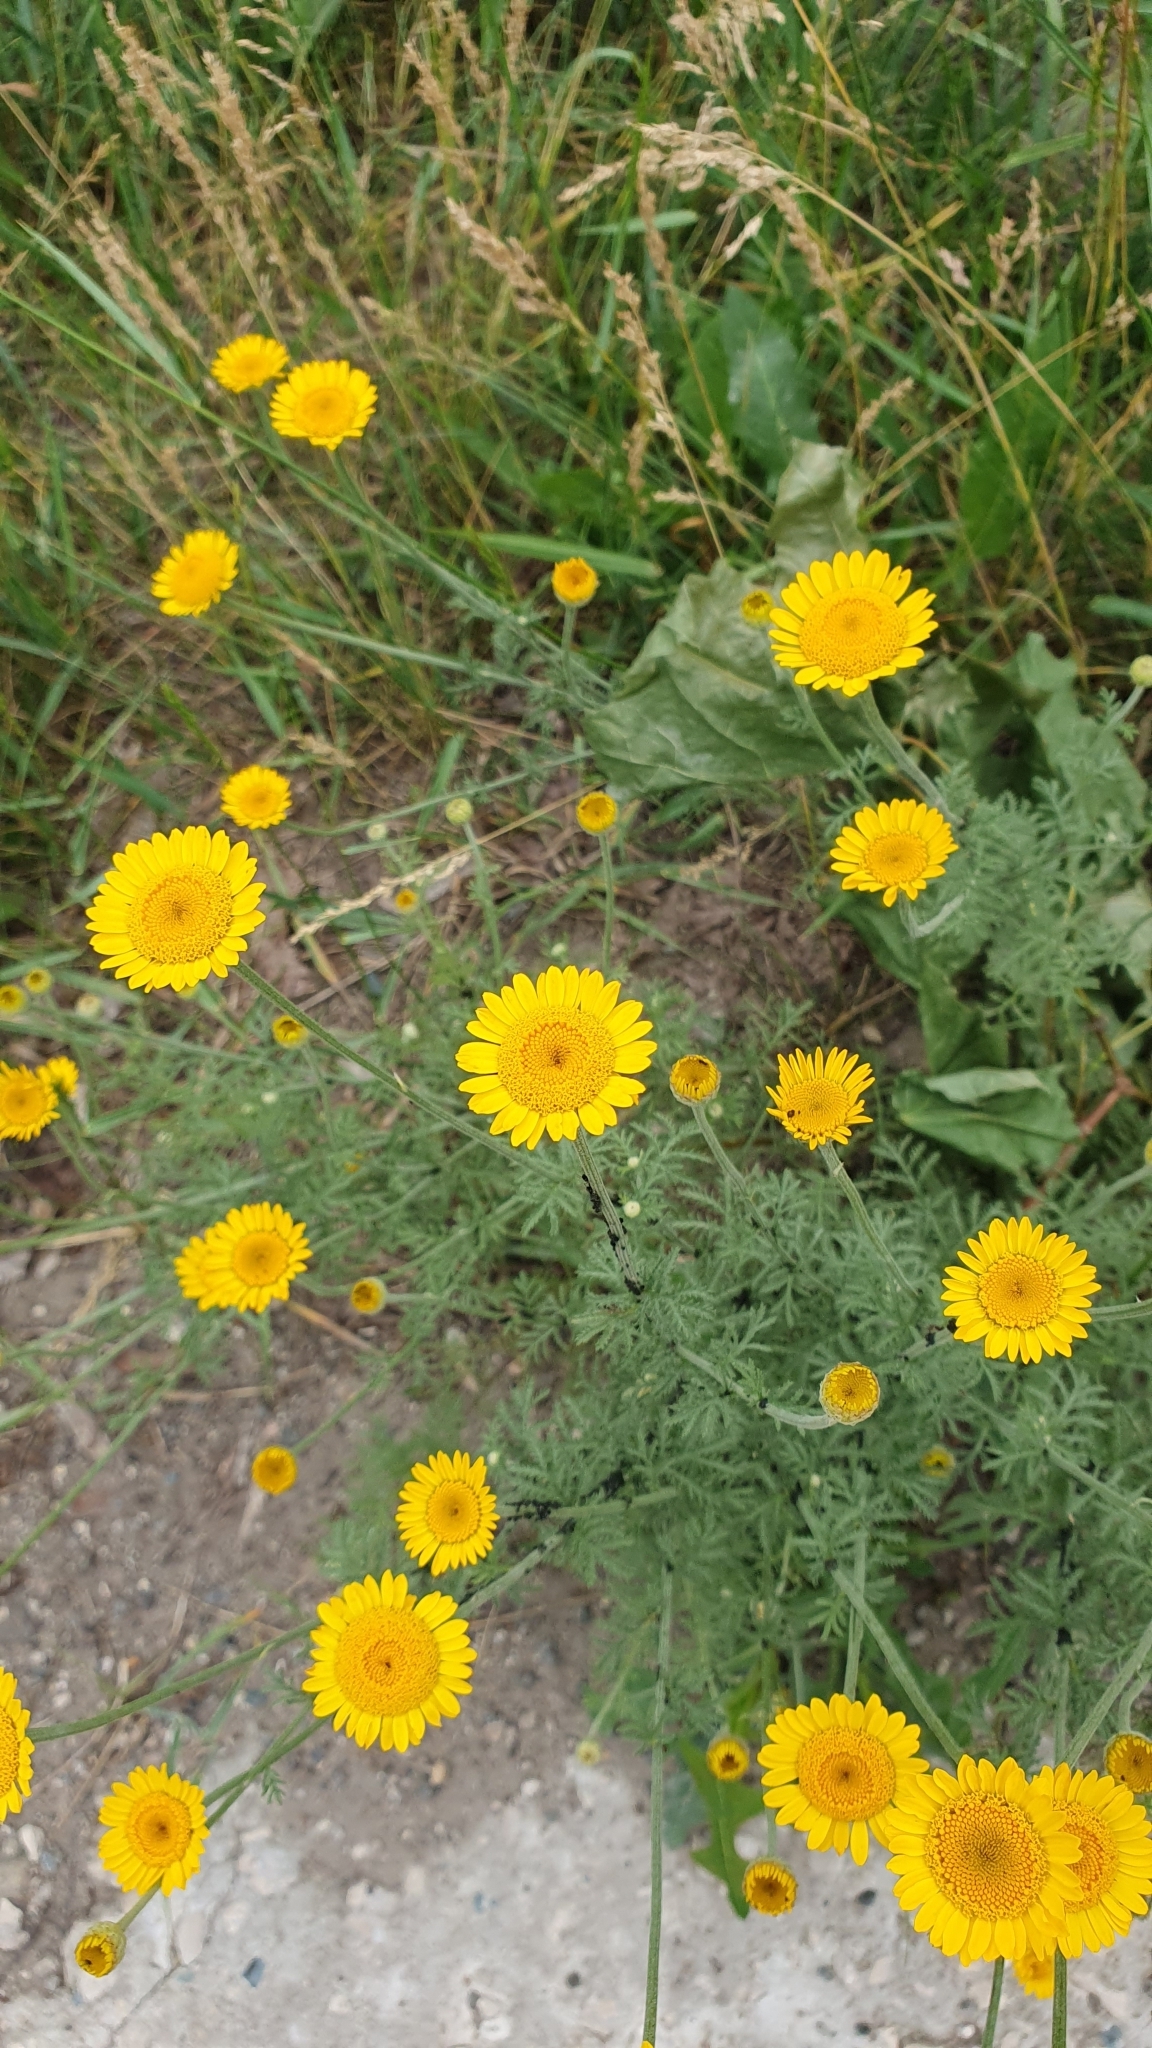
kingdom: Plantae
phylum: Tracheophyta
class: Magnoliopsida
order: Asterales
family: Asteraceae
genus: Cota
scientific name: Cota tinctoria
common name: Golden chamomile
